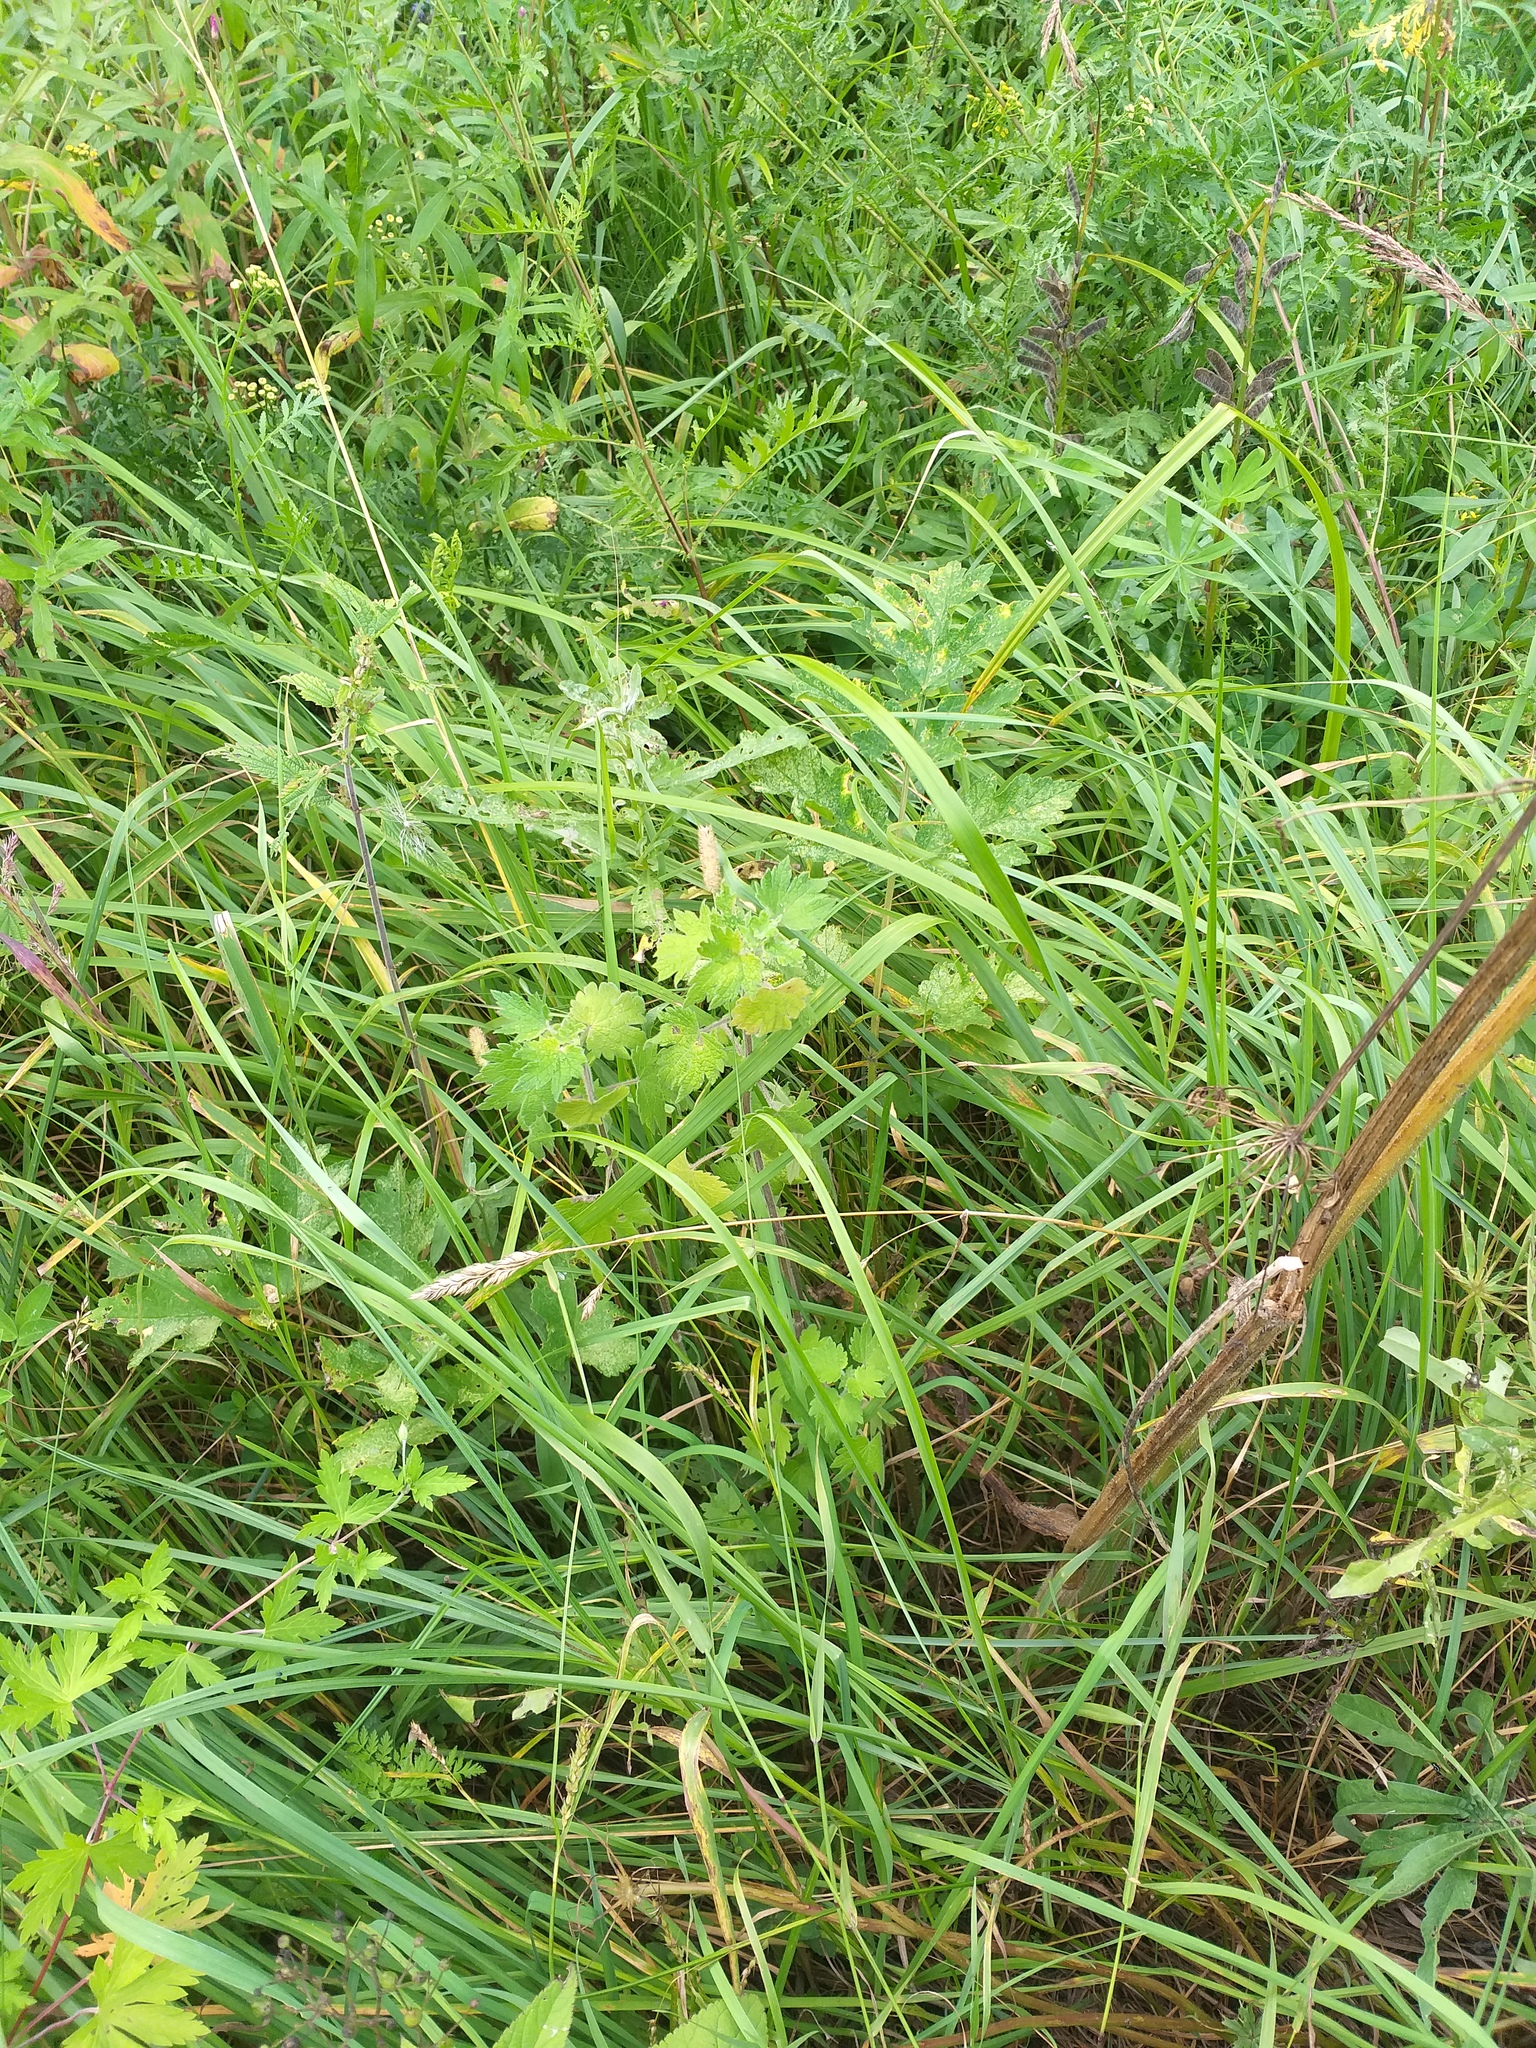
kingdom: Plantae
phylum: Tracheophyta
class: Magnoliopsida
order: Lamiales
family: Lamiaceae
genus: Leonurus
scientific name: Leonurus quinquelobatus
